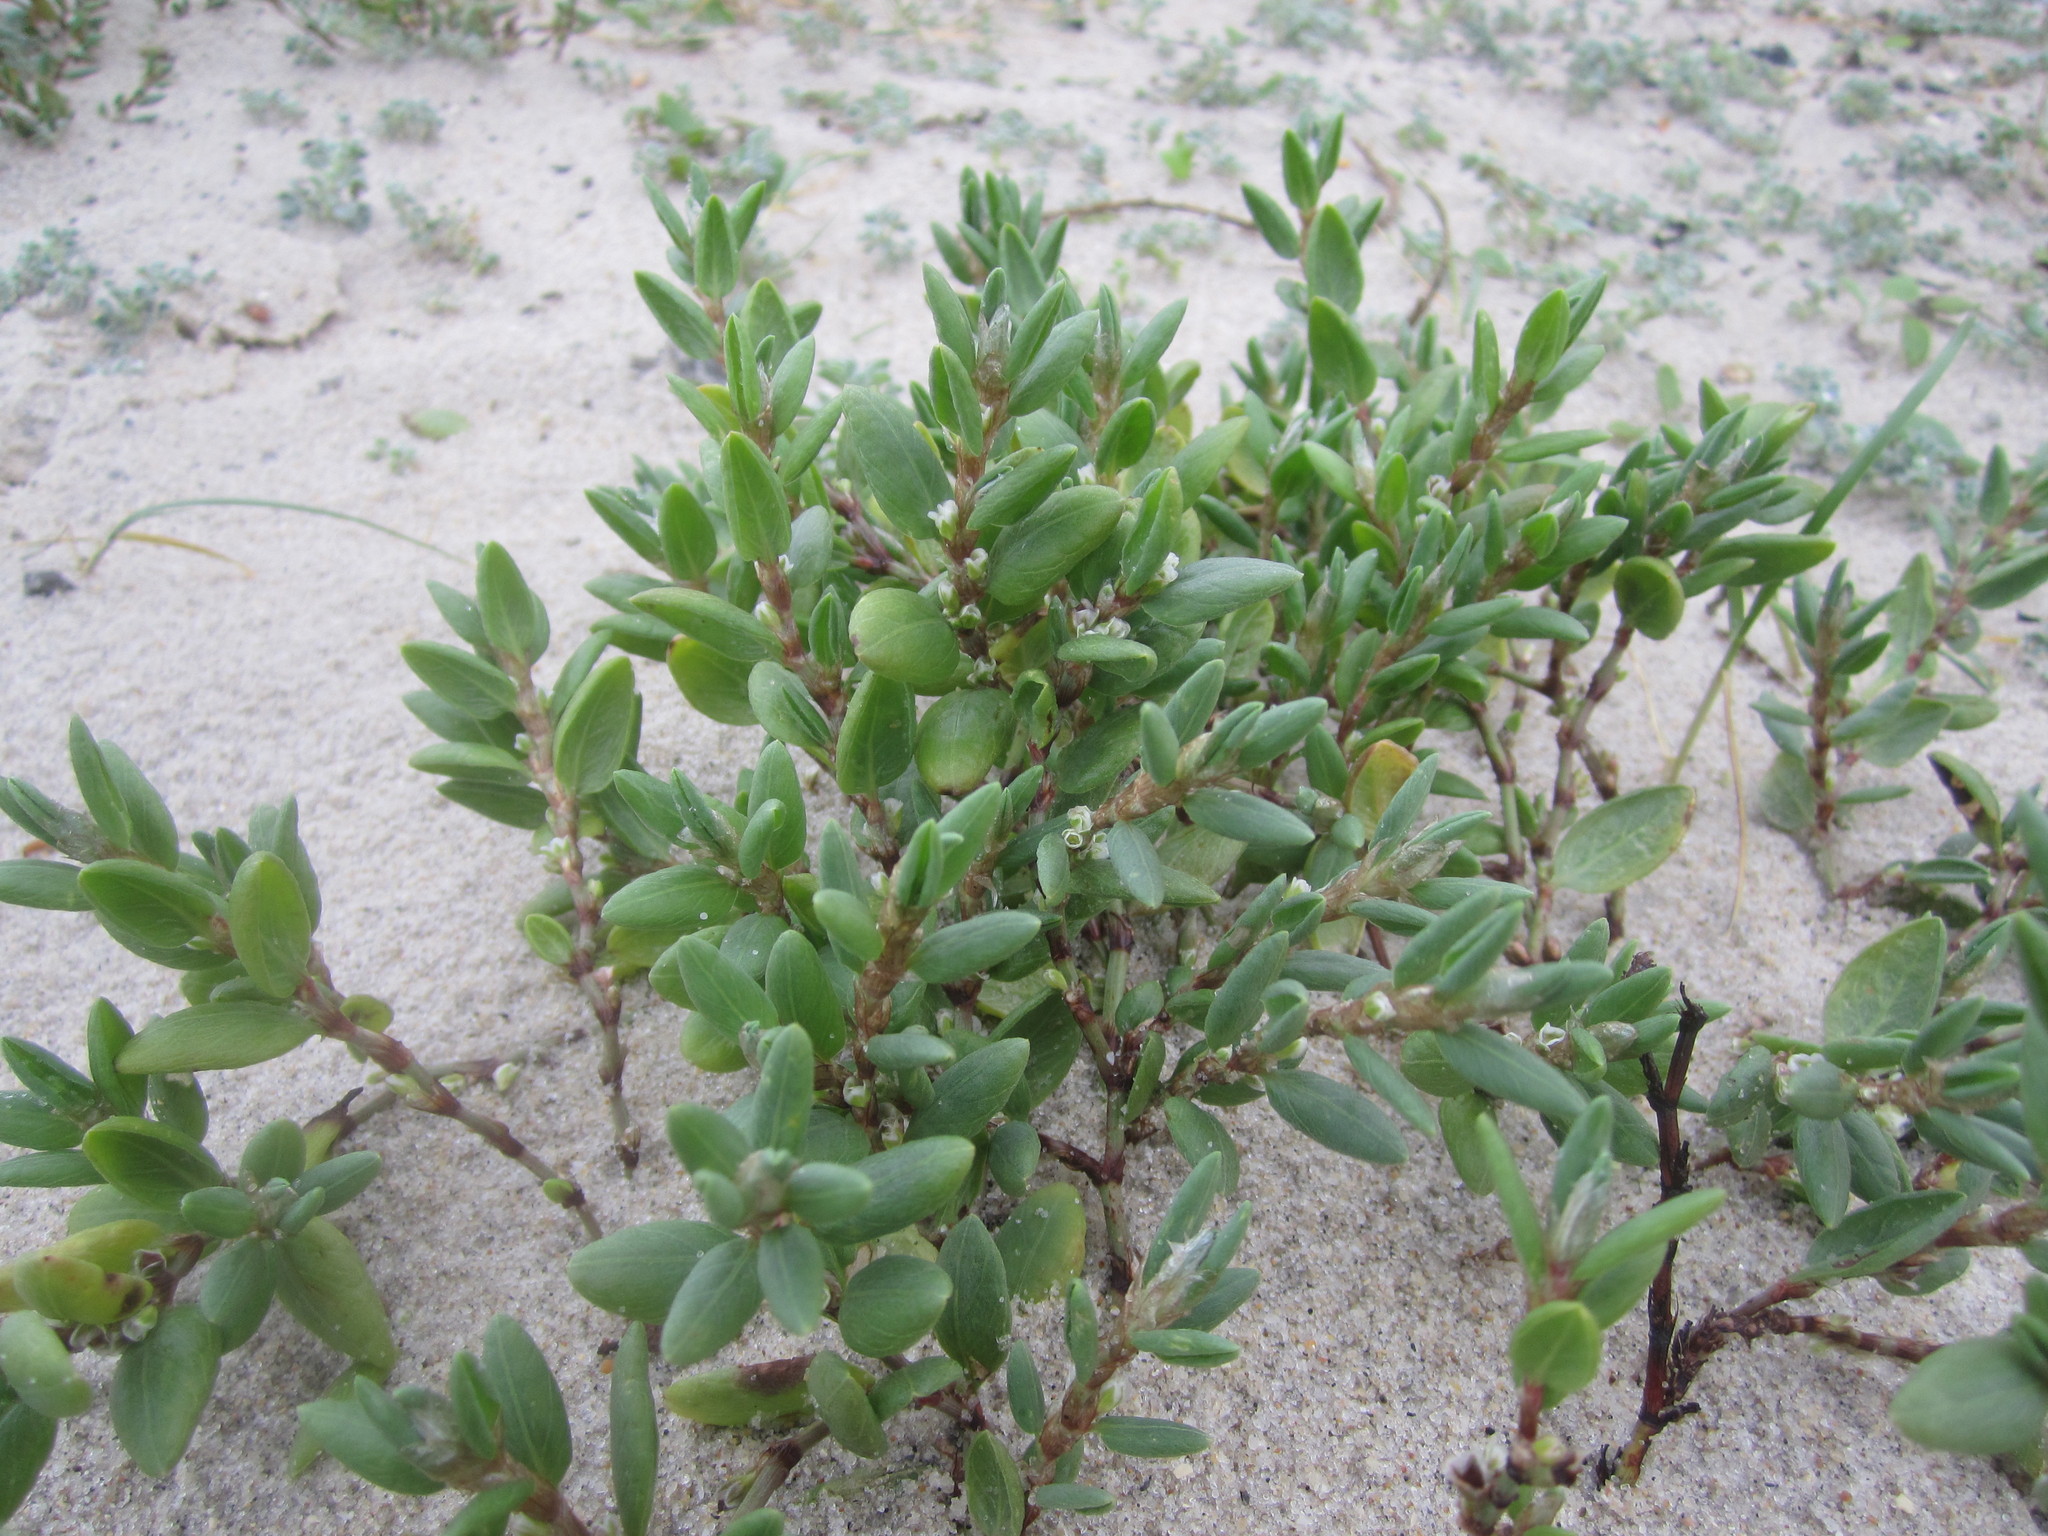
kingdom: Plantae
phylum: Tracheophyta
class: Magnoliopsida
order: Caryophyllales
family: Polygonaceae
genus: Polygonum
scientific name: Polygonum maritimum
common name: Sea knotgrass
